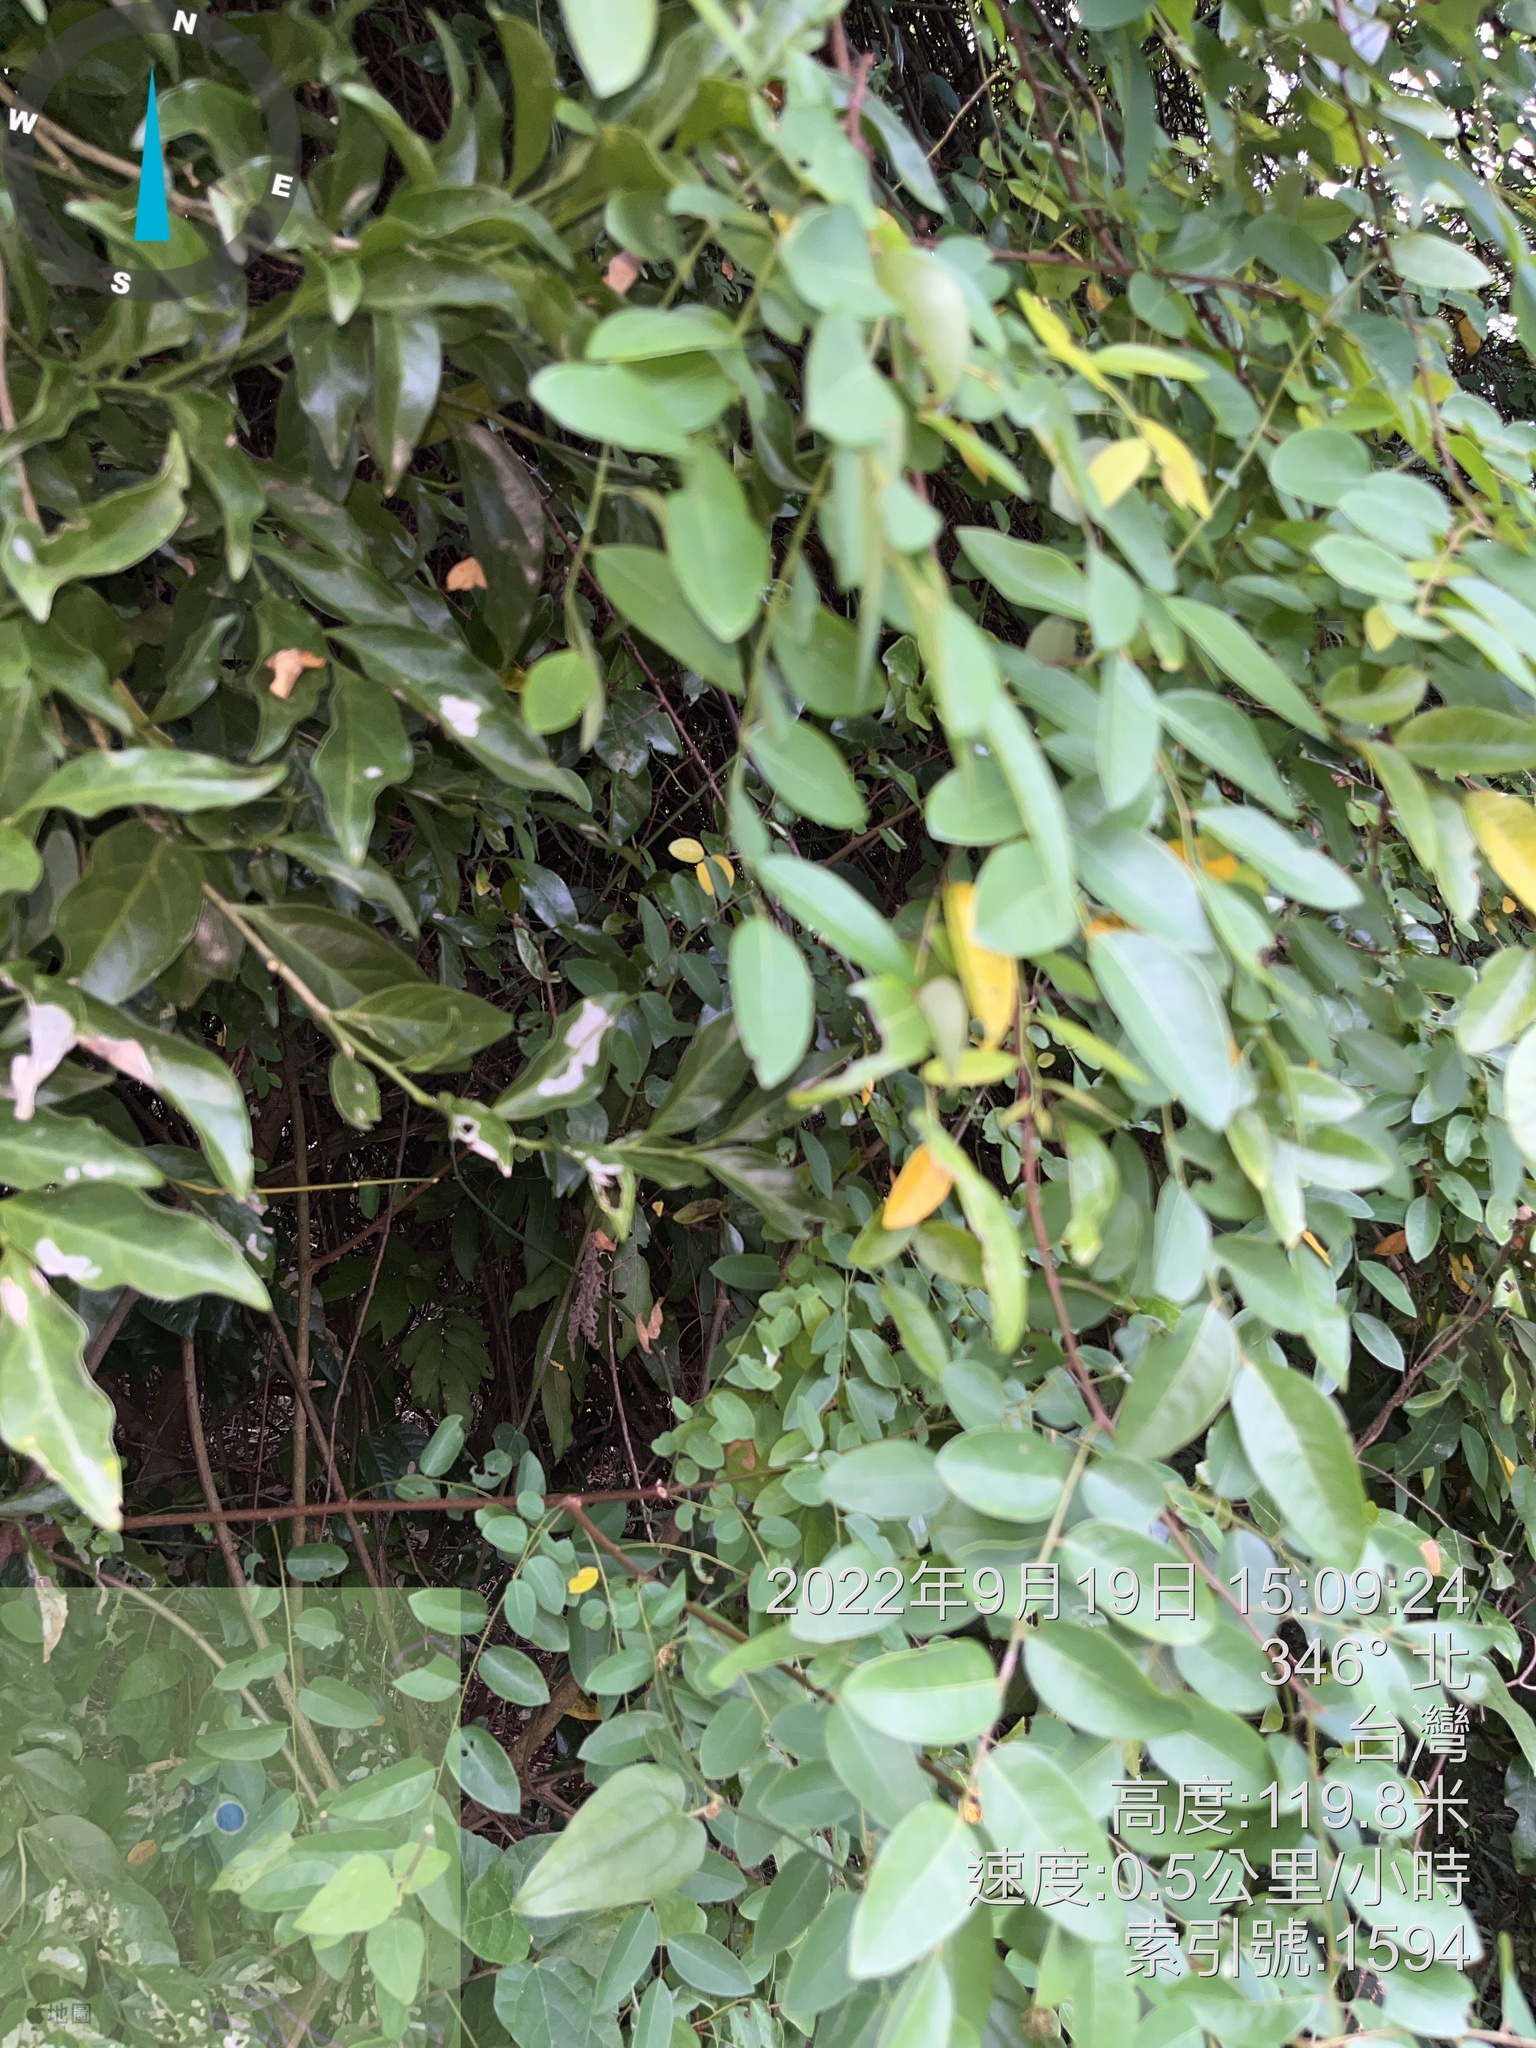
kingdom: Plantae
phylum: Tracheophyta
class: Magnoliopsida
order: Malpighiales
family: Phyllanthaceae
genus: Phyllanthus
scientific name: Phyllanthus reticulatus
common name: Potato bush
